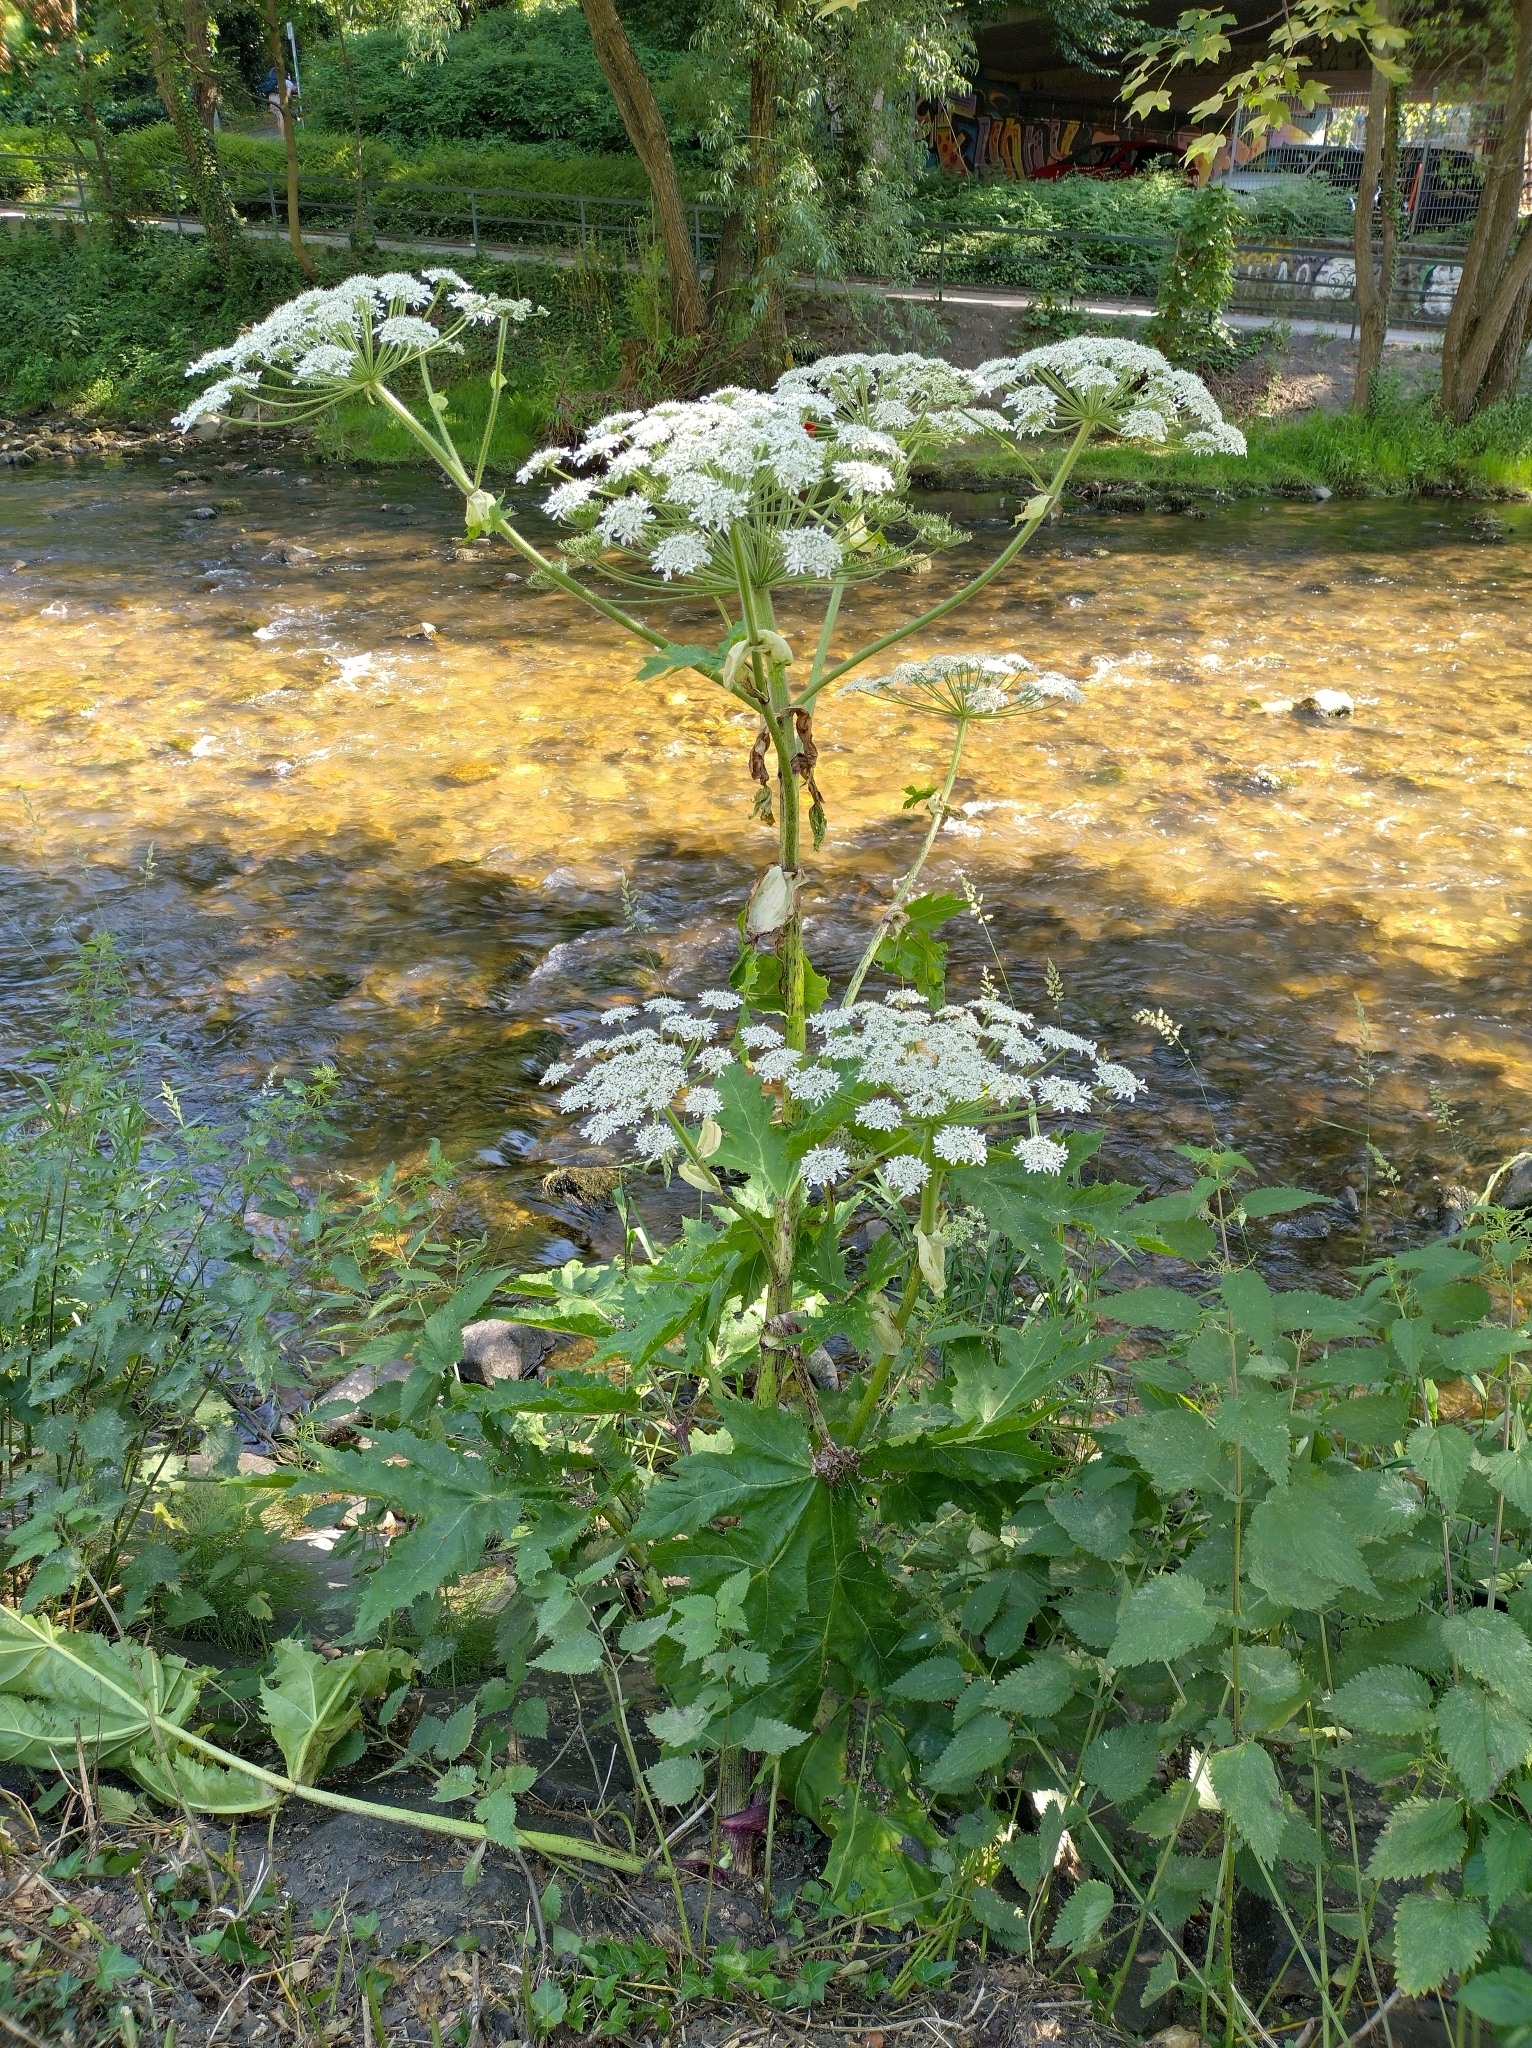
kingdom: Plantae
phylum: Tracheophyta
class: Magnoliopsida
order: Apiales
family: Apiaceae
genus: Heracleum
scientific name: Heracleum mantegazzianum
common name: Giant hogweed
